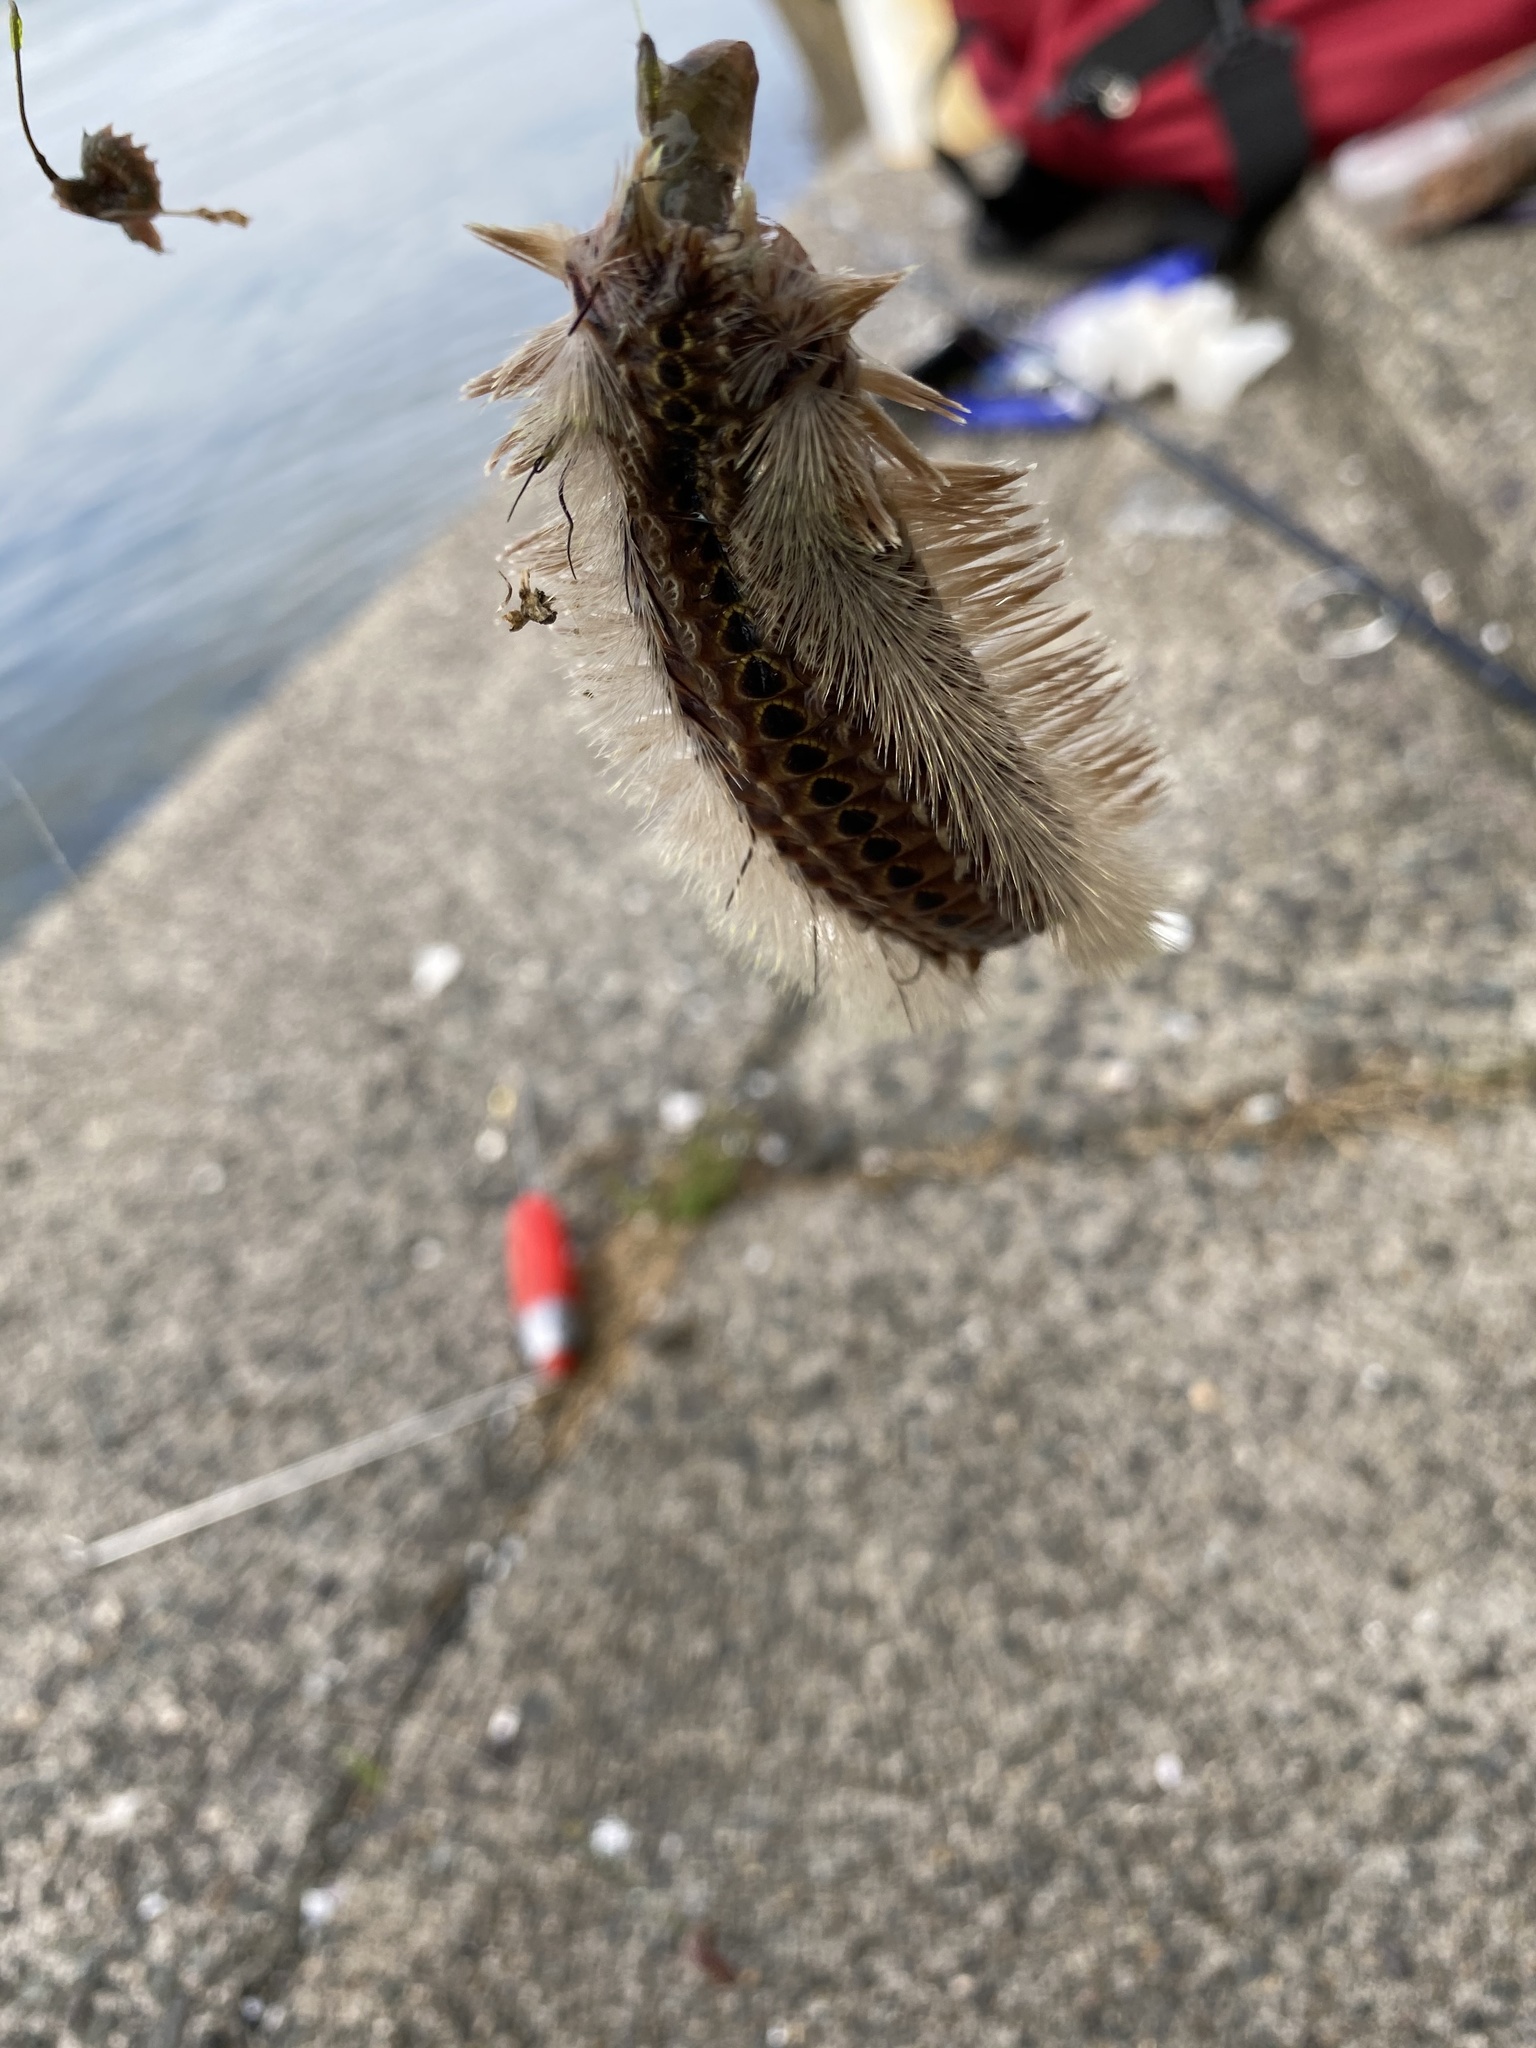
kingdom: Animalia
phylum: Annelida
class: Polychaeta
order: Amphinomida
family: Amphinomidae
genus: Chloeia
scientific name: Chloeia flava
